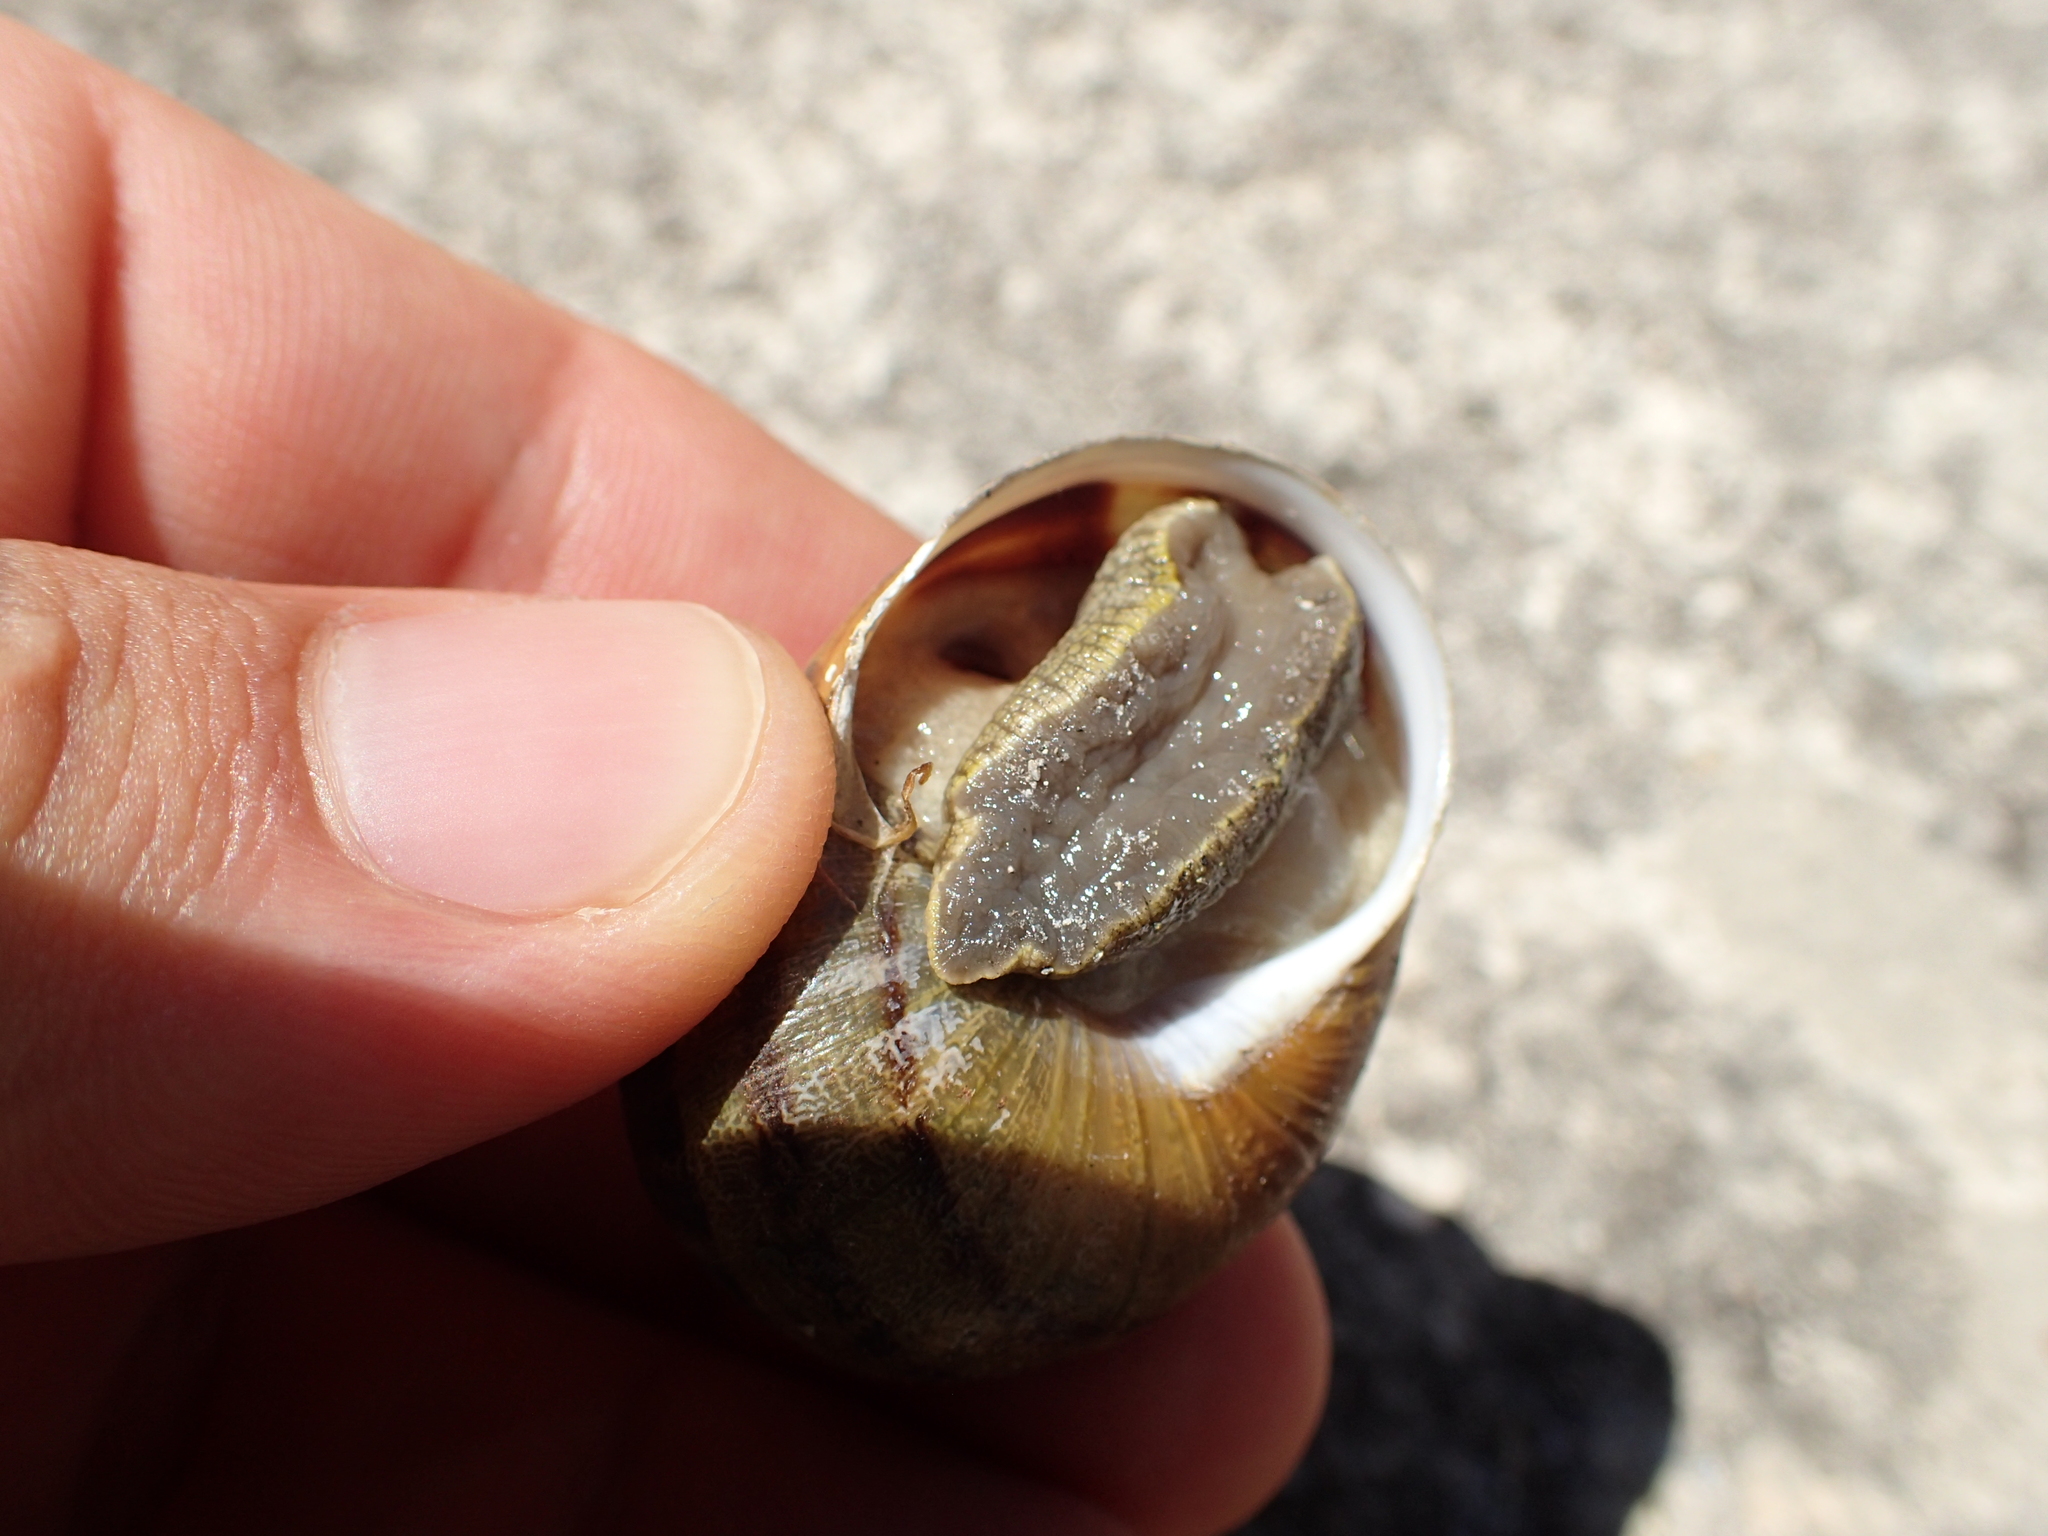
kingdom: Animalia
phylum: Mollusca
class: Gastropoda
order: Stylommatophora
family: Helicidae
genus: Cornu
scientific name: Cornu aspersum
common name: Brown garden snail
